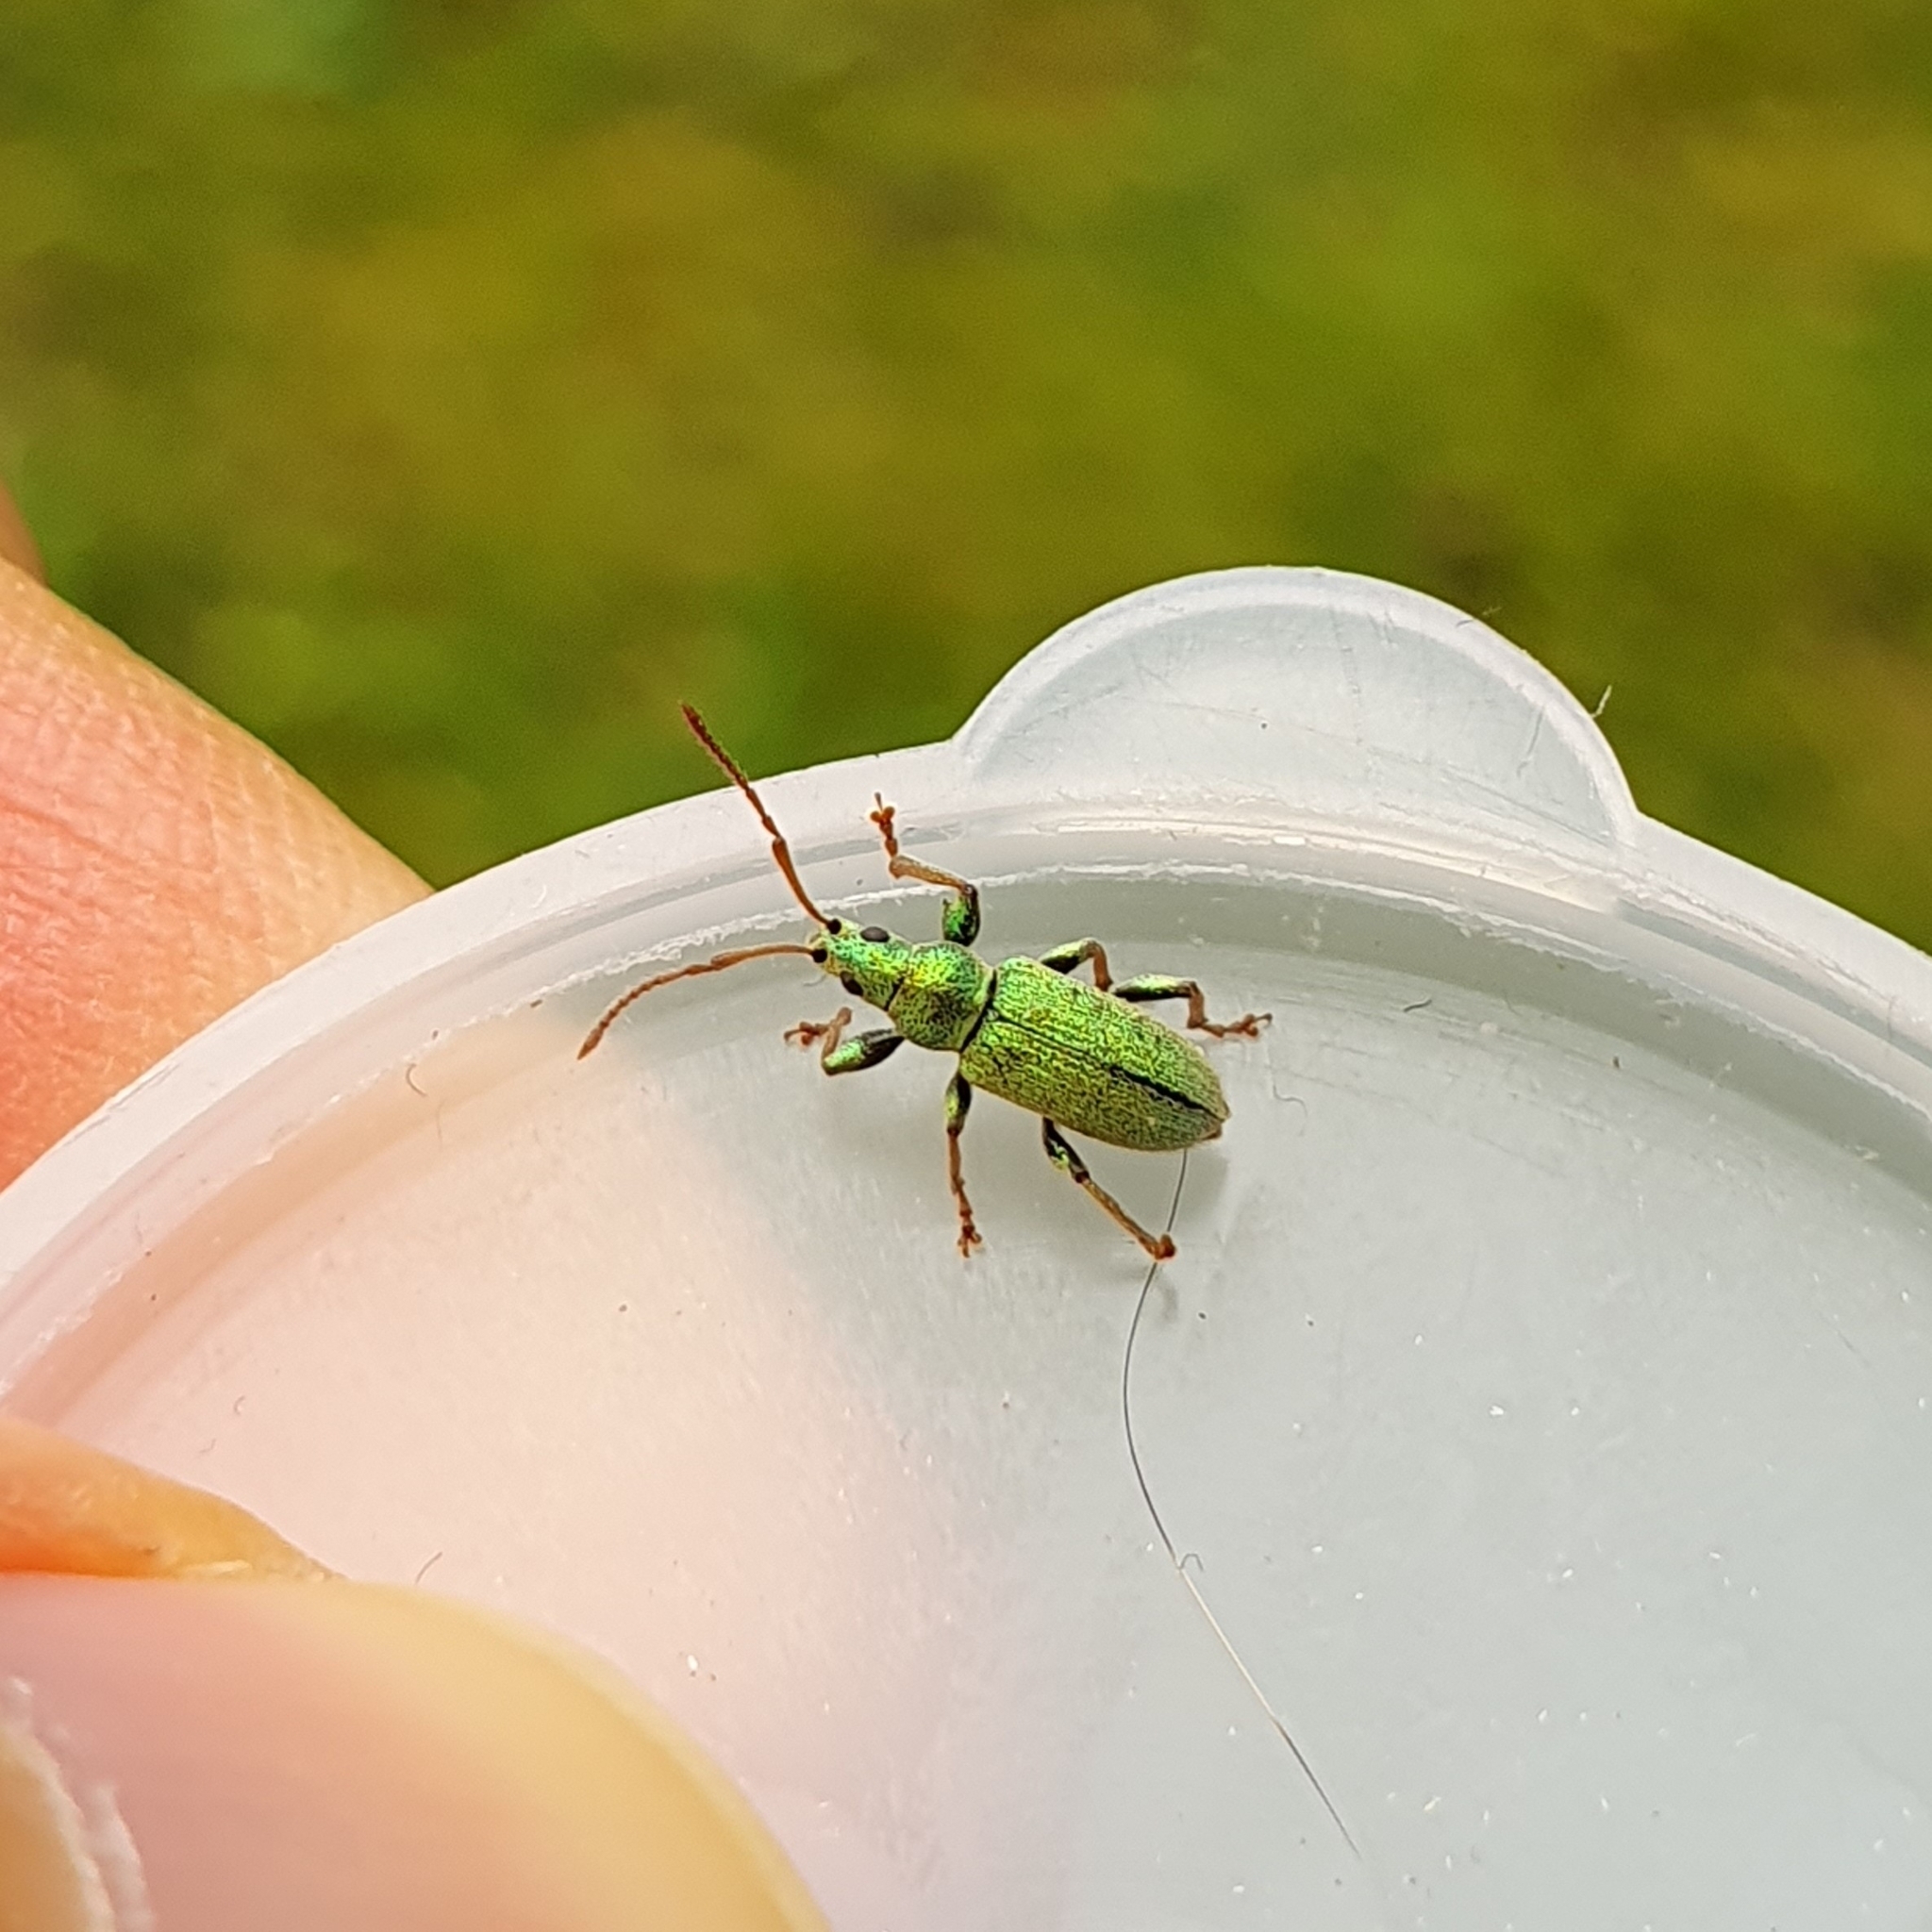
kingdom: Animalia
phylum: Arthropoda
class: Insecta
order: Coleoptera
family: Curculionidae
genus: Phyllobius
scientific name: Phyllobius argentatus
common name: Silver-green leaf weevil
